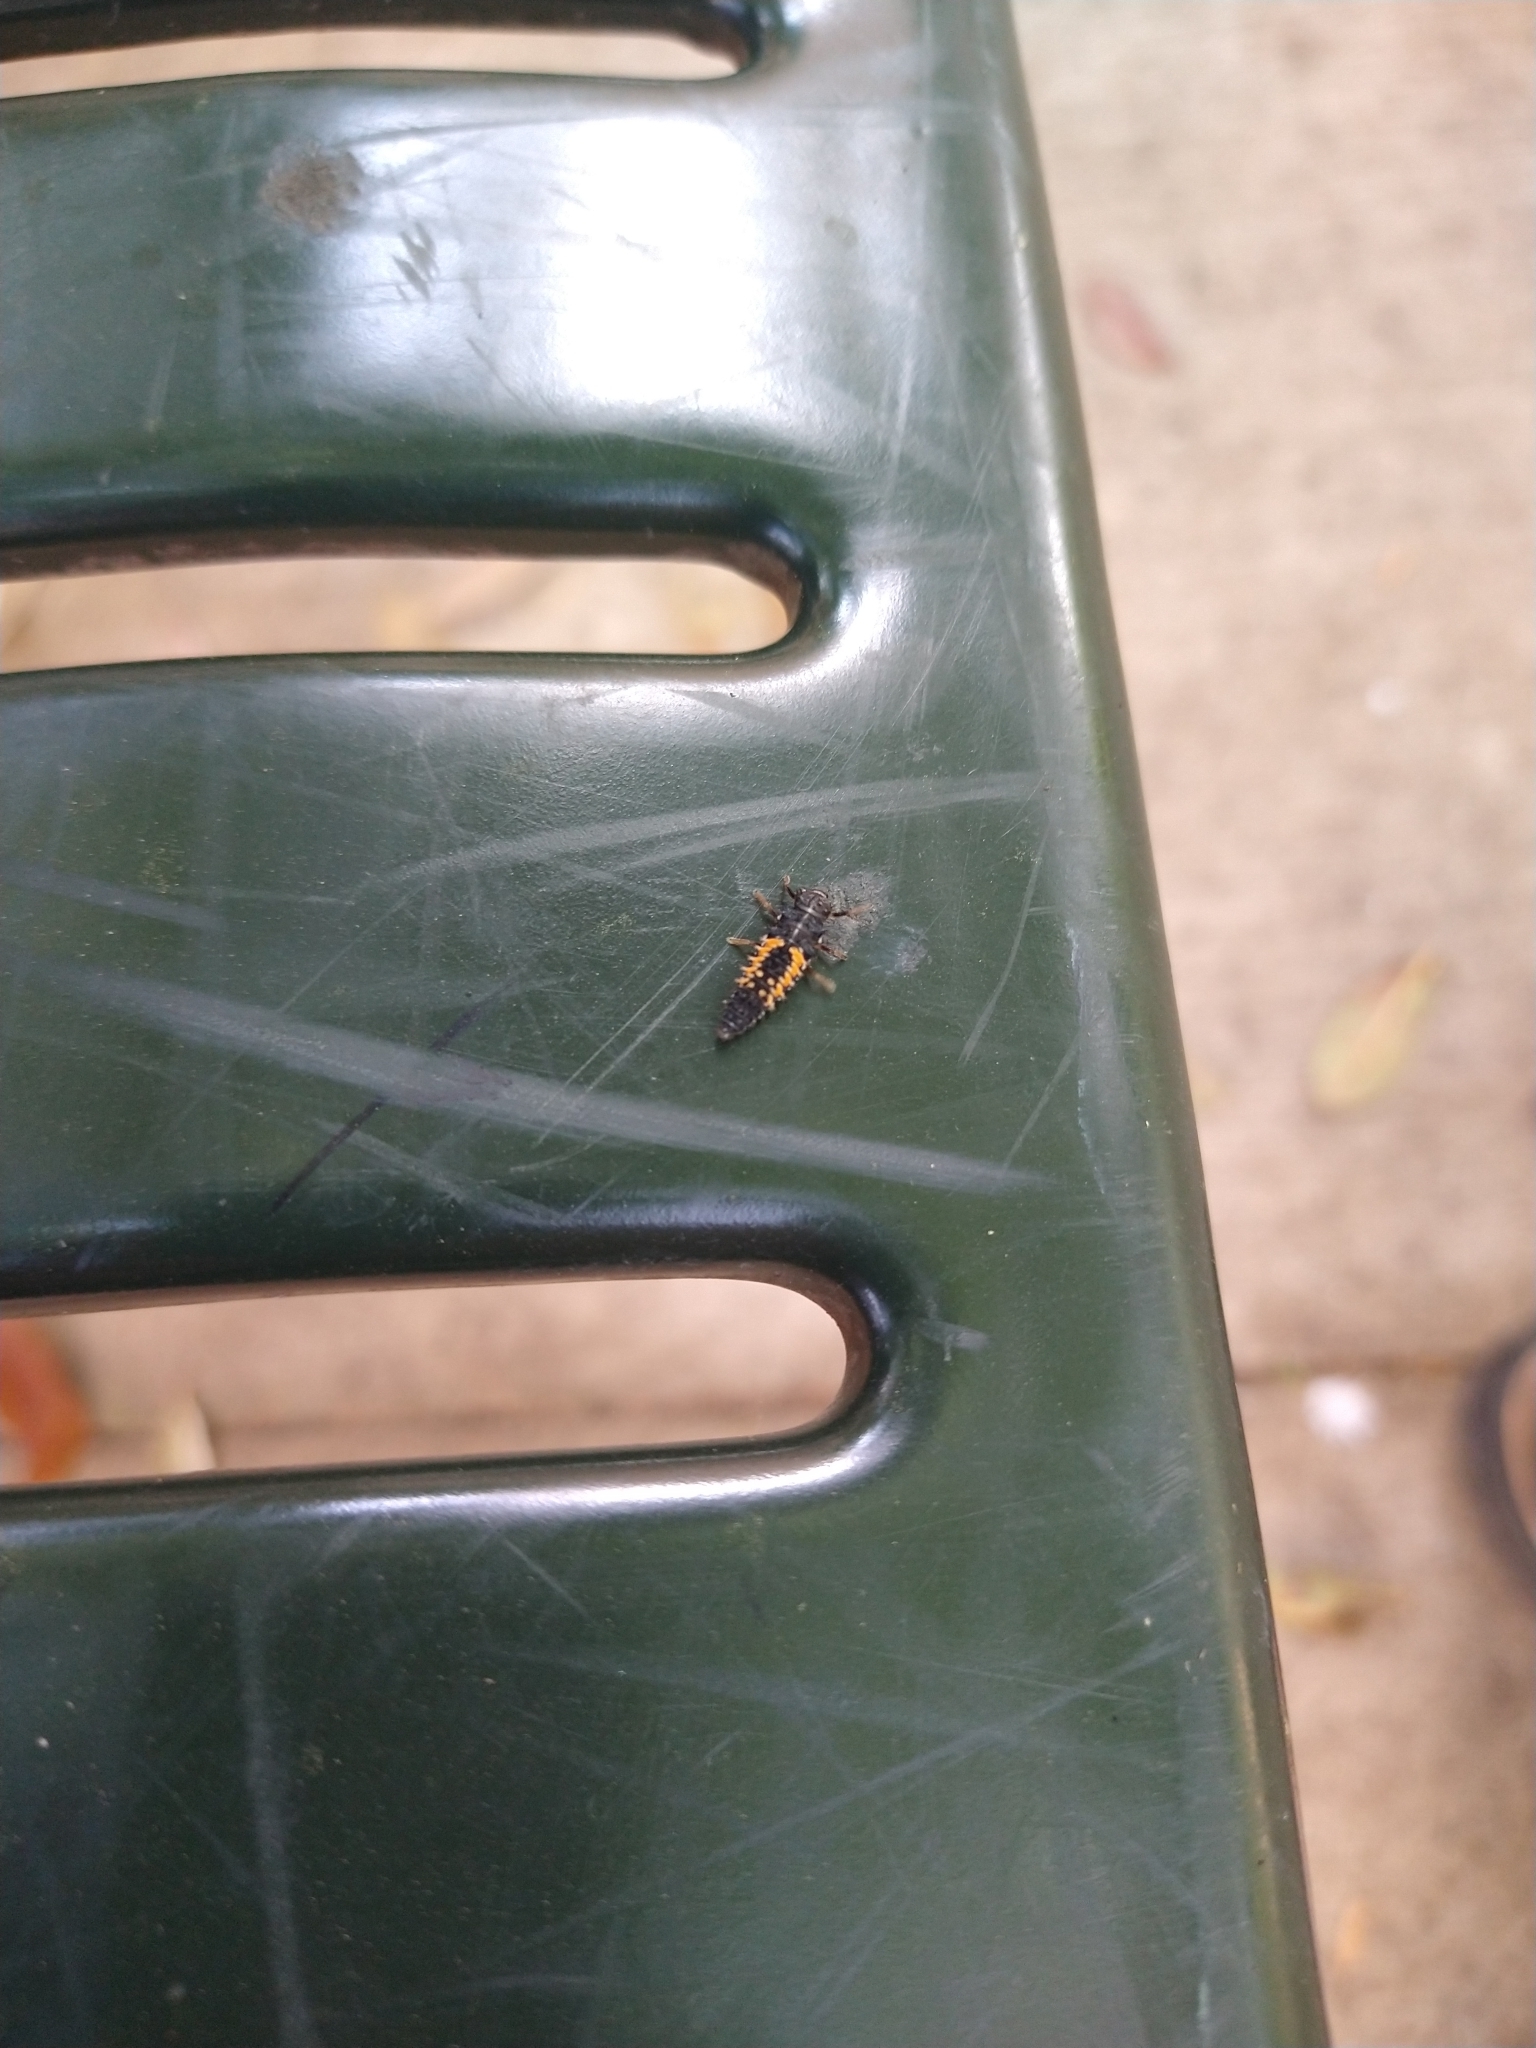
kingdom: Animalia
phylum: Arthropoda
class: Insecta
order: Coleoptera
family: Coccinellidae
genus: Harmonia
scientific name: Harmonia axyridis
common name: Harlequin ladybird
